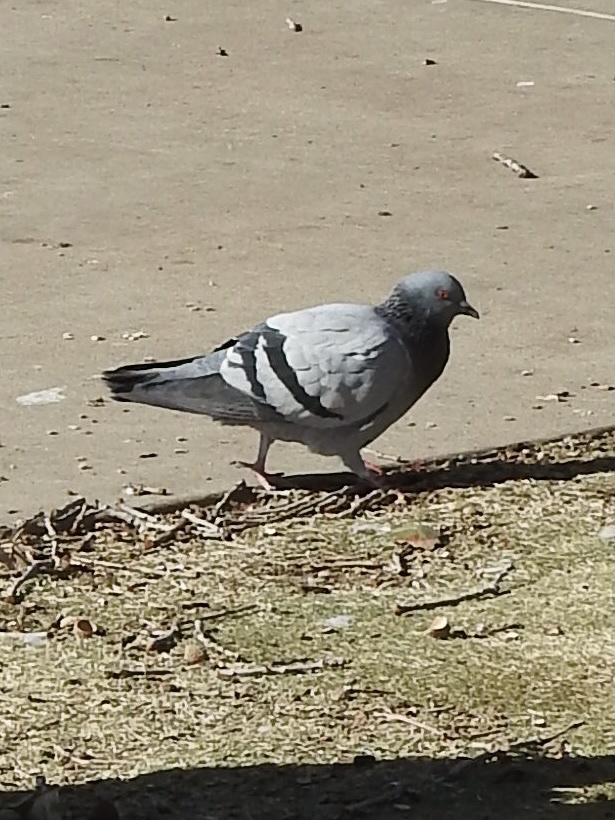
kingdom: Animalia
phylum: Chordata
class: Aves
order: Columbiformes
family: Columbidae
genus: Columba
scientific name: Columba livia
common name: Rock pigeon
